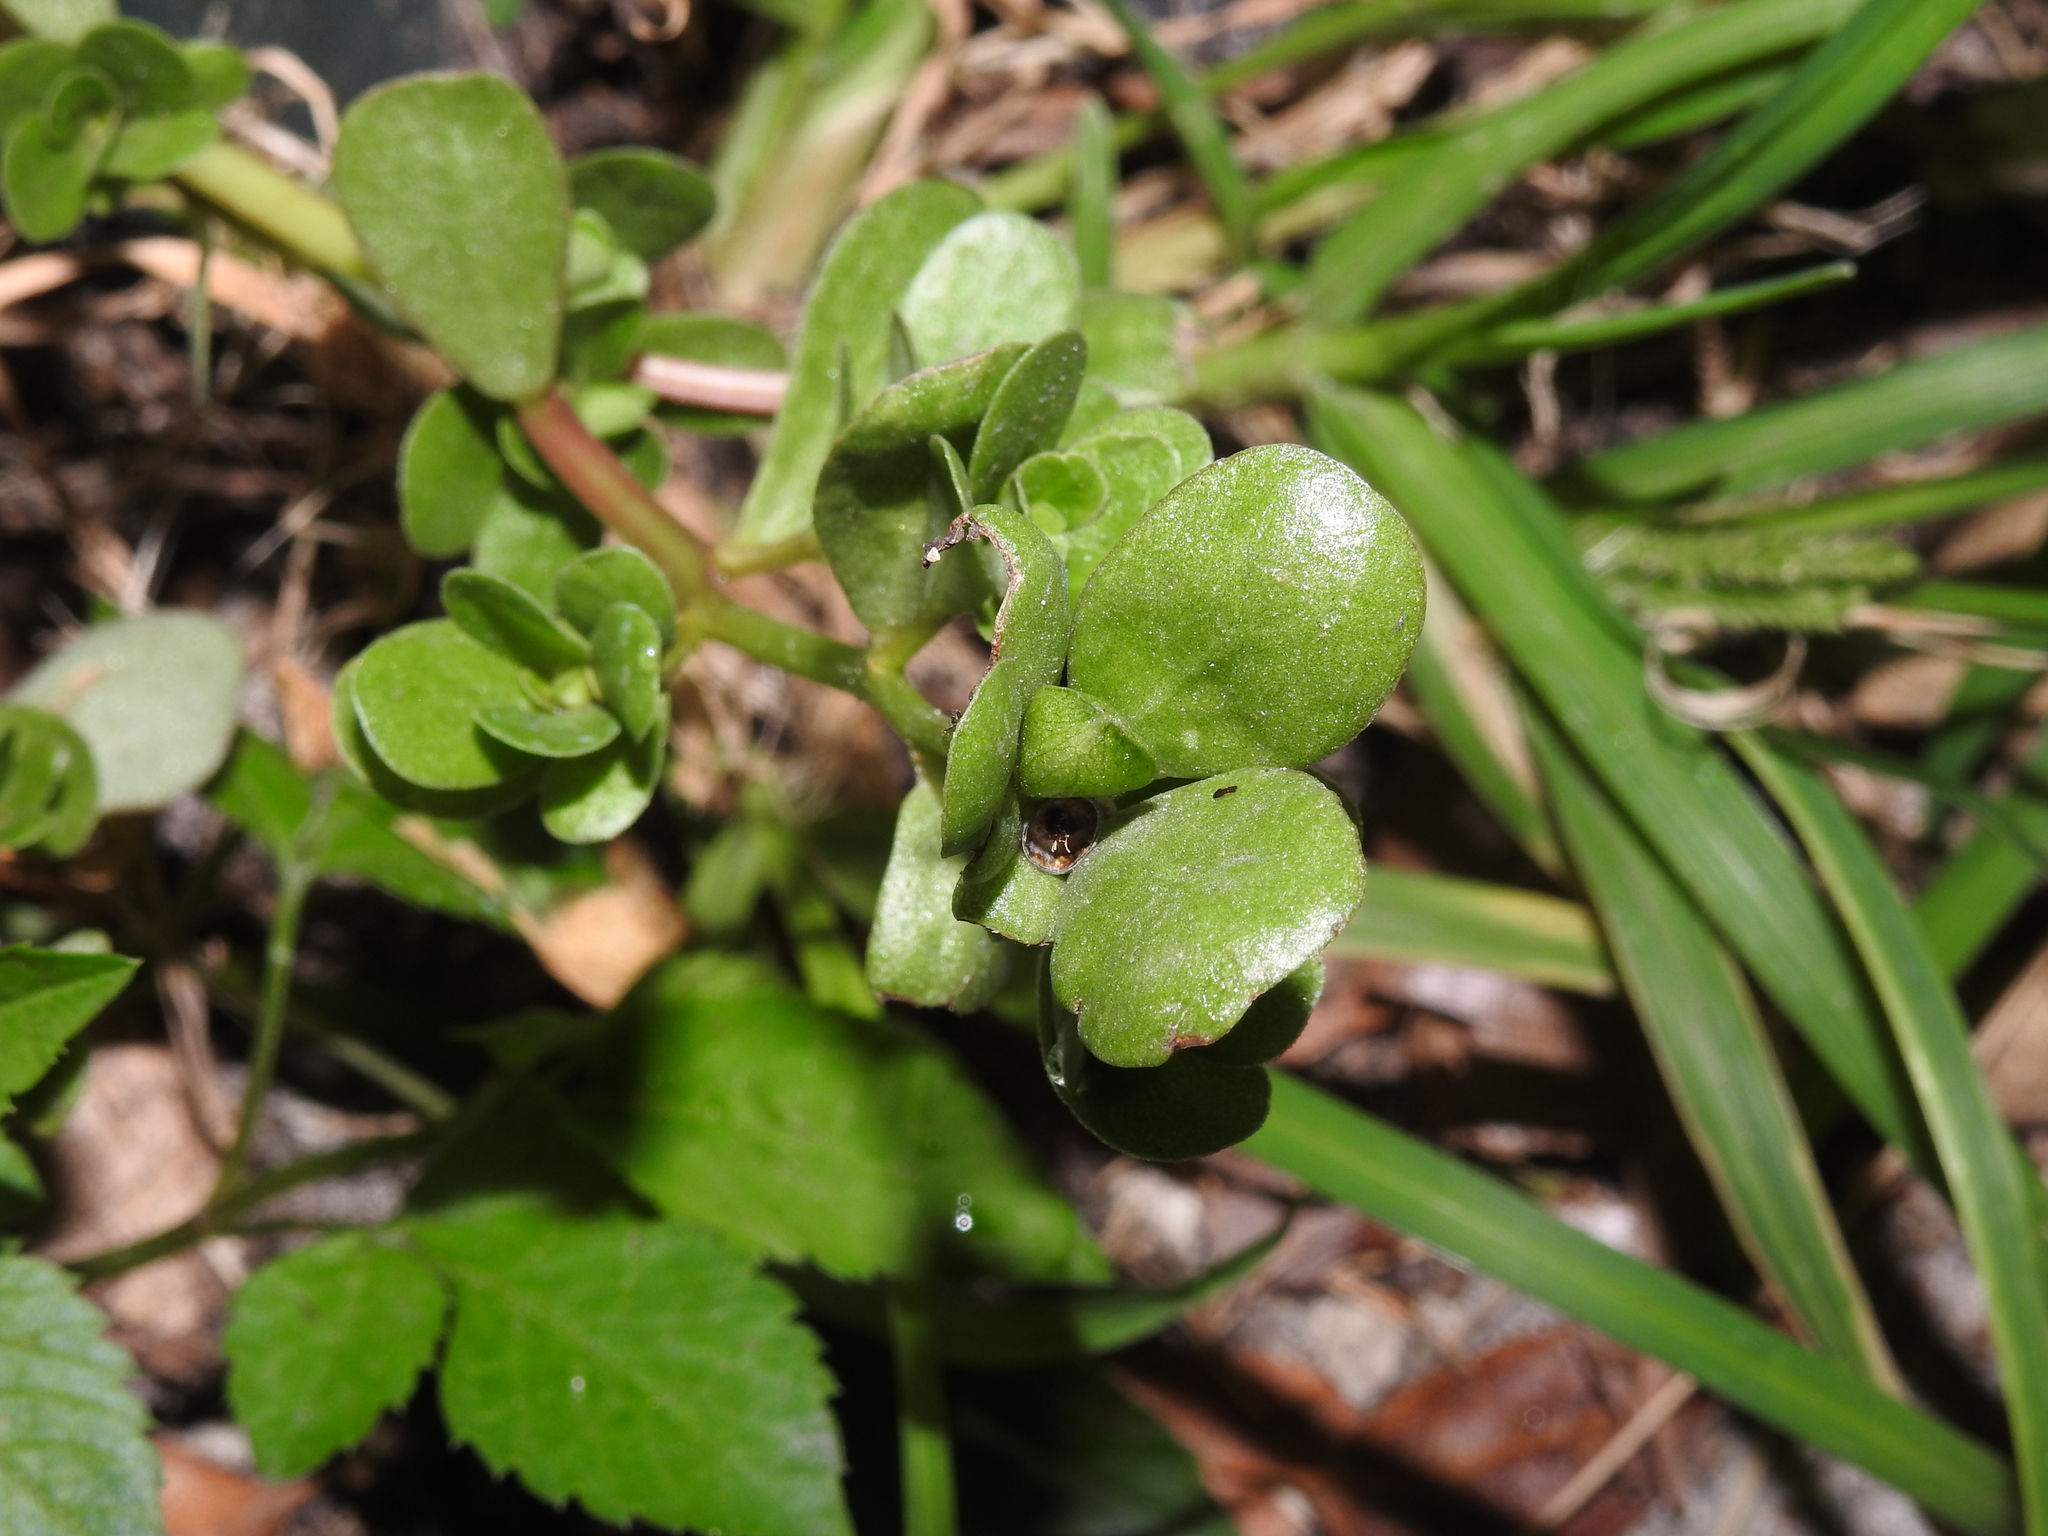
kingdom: Plantae
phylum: Tracheophyta
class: Magnoliopsida
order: Caryophyllales
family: Portulacaceae
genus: Portulaca
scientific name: Portulaca oleracea
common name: Common purslane
